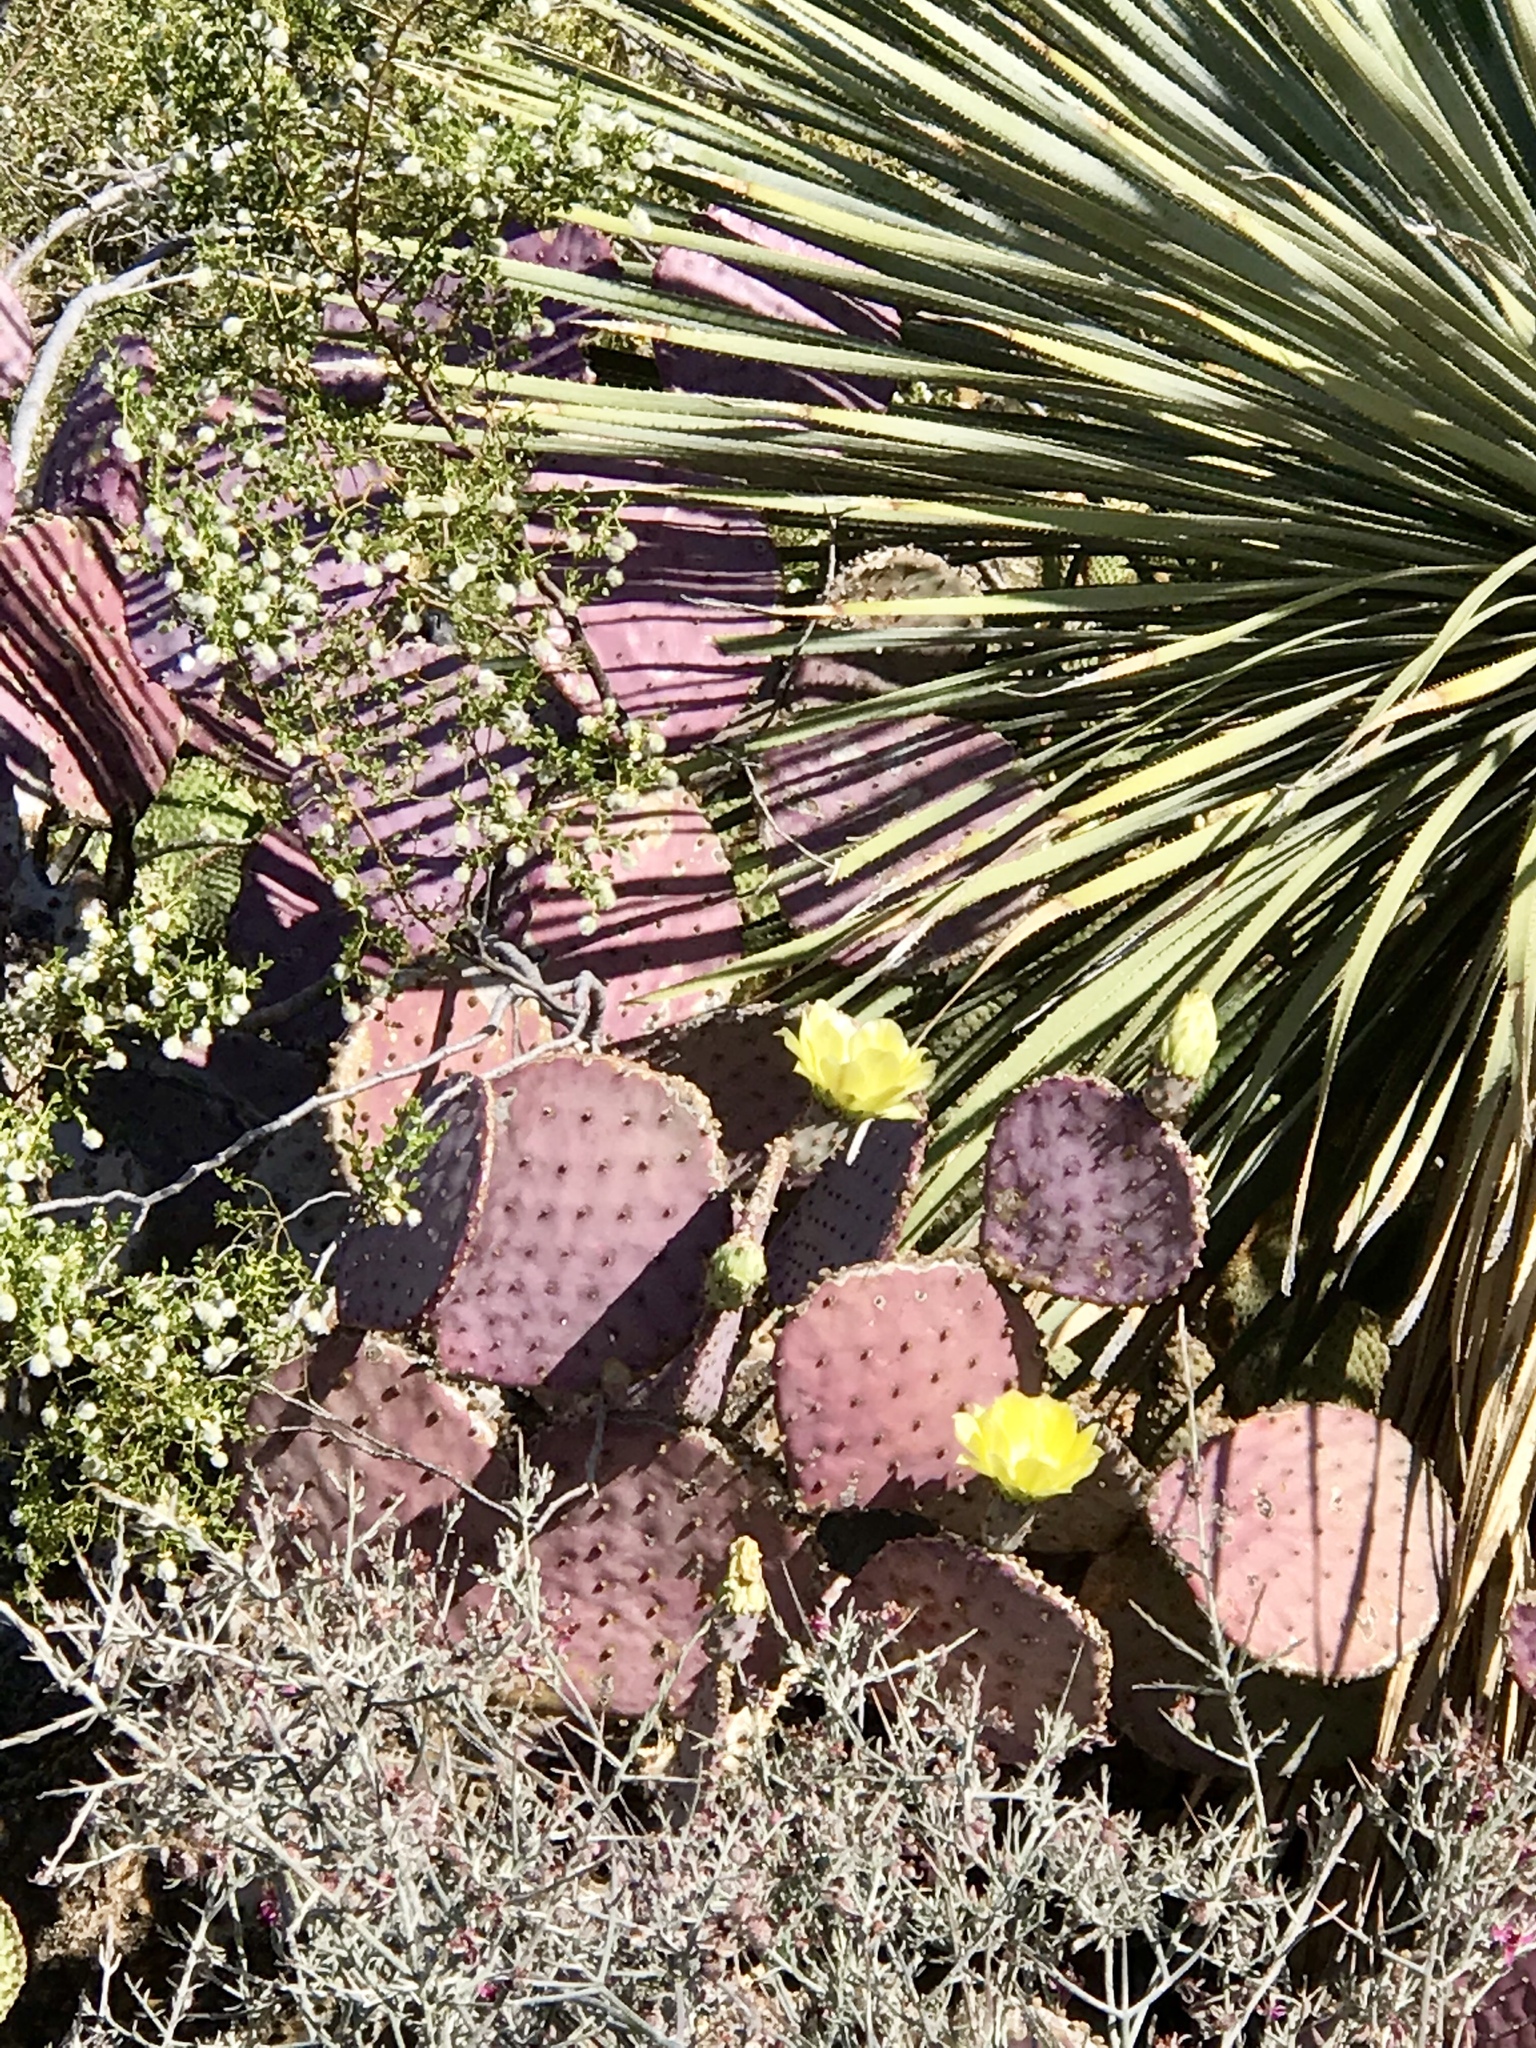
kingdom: Plantae
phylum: Tracheophyta
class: Magnoliopsida
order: Caryophyllales
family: Cactaceae
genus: Opuntia
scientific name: Opuntia gosseliniana
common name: Violet prickly-pear
